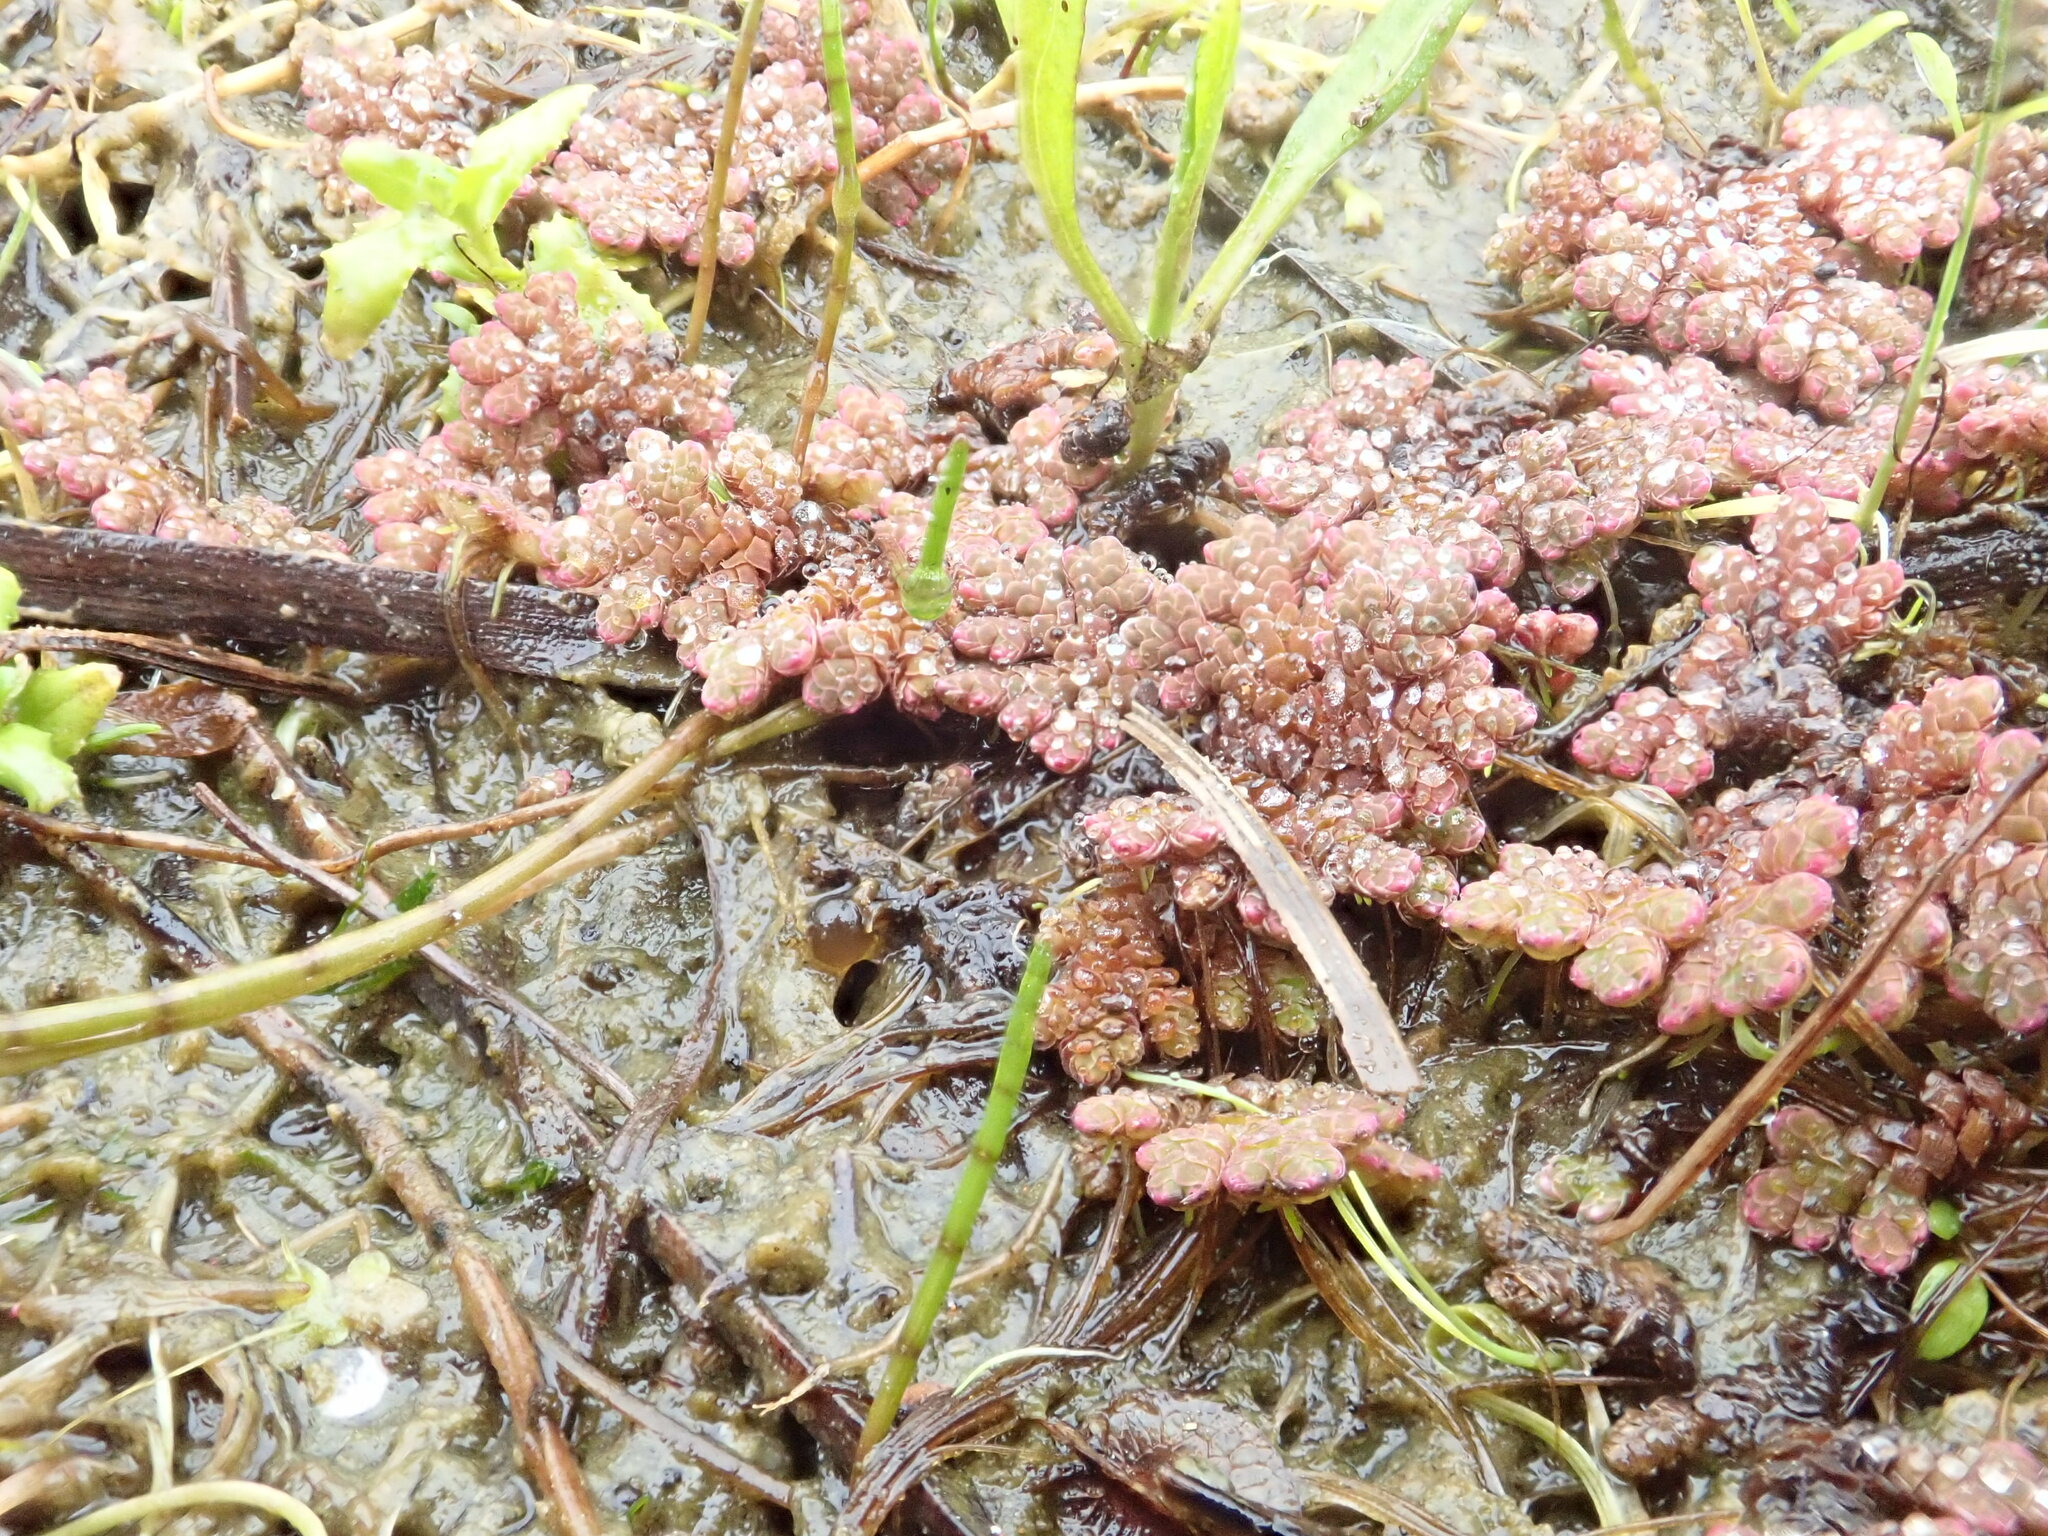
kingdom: Plantae
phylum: Tracheophyta
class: Polypodiopsida
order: Salviniales
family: Salviniaceae
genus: Azolla
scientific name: Azolla rubra
